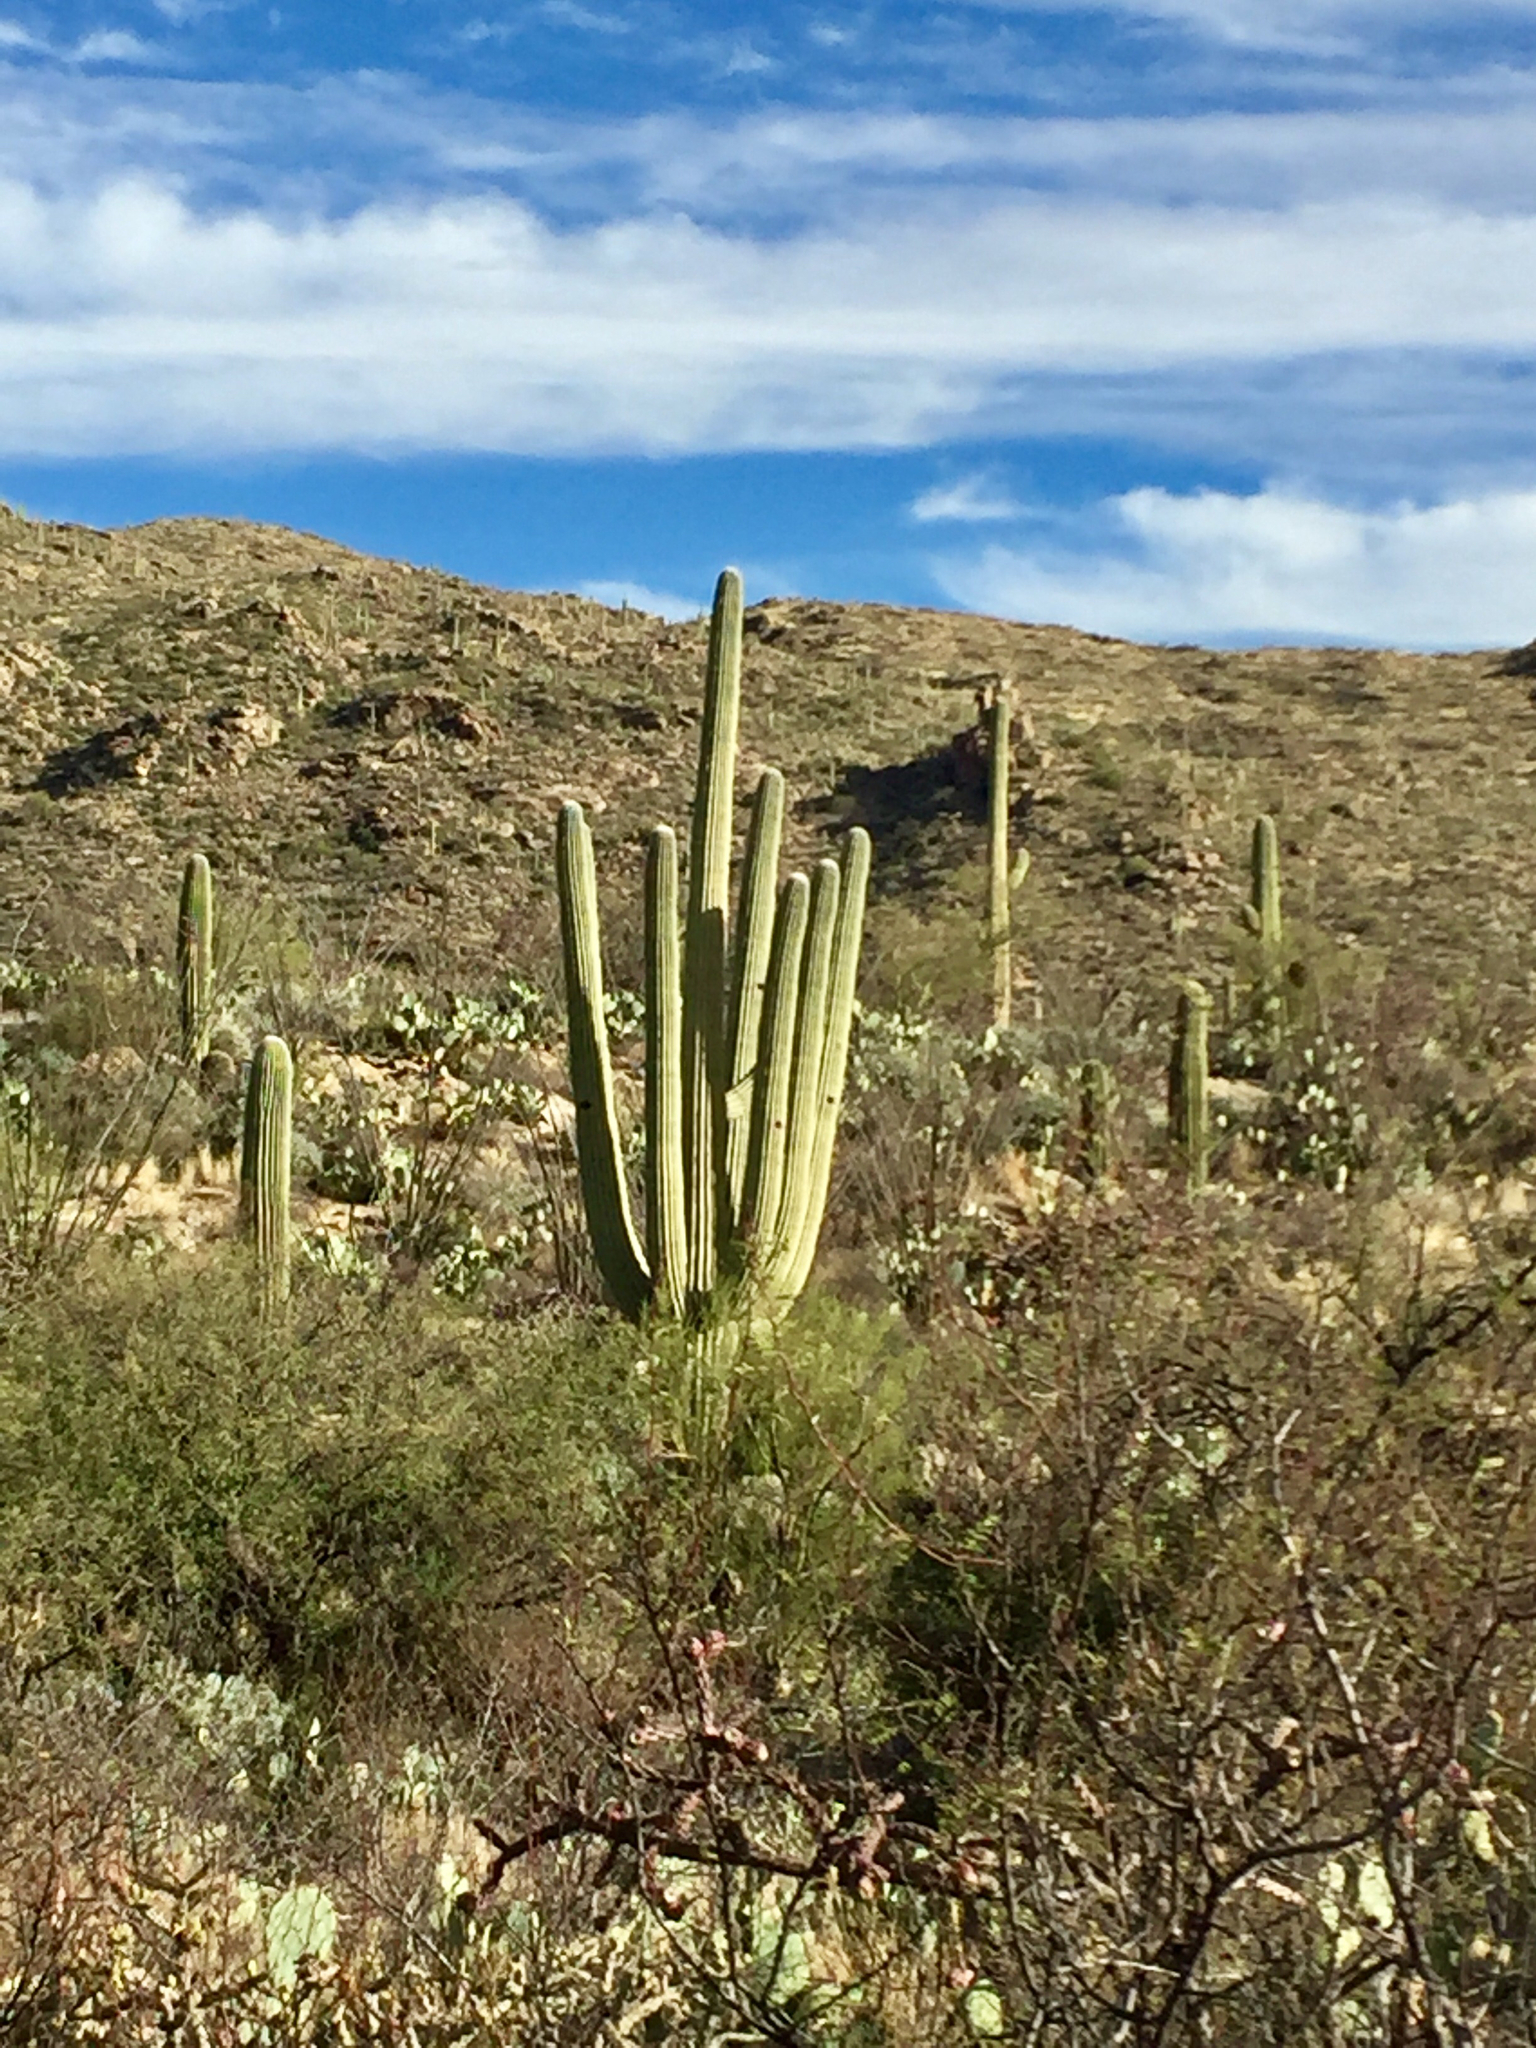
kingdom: Plantae
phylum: Tracheophyta
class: Magnoliopsida
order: Caryophyllales
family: Cactaceae
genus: Carnegiea
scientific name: Carnegiea gigantea
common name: Saguaro
